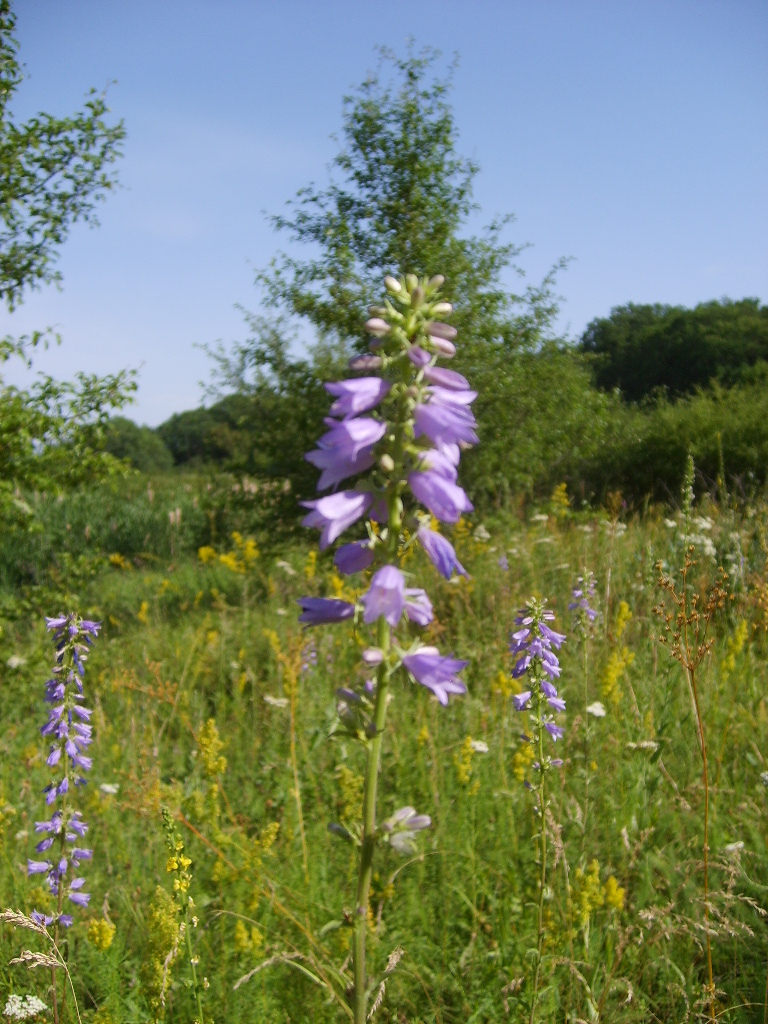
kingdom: Plantae
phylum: Tracheophyta
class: Magnoliopsida
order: Asterales
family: Campanulaceae
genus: Campanula
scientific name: Campanula bononiensis
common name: Pale bellflower
